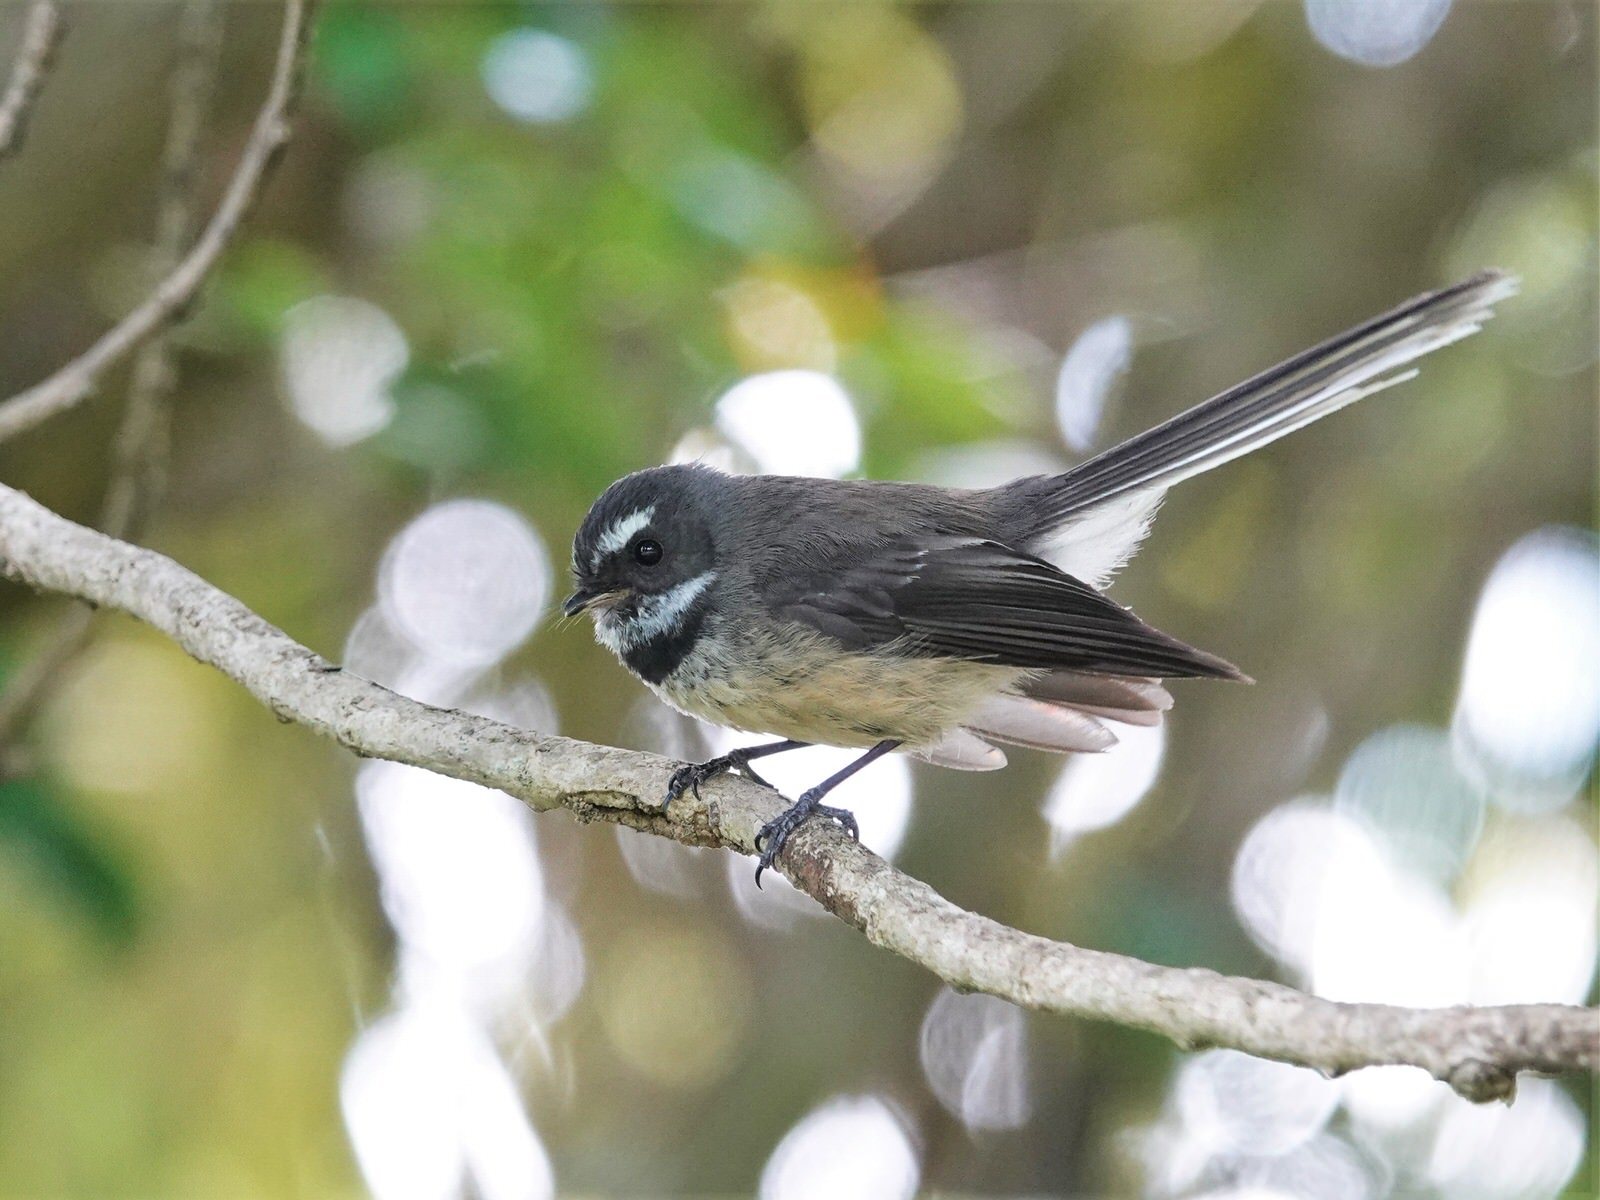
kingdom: Animalia
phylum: Chordata
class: Aves
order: Passeriformes
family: Rhipiduridae
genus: Rhipidura
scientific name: Rhipidura fuliginosa
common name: New zealand fantail
